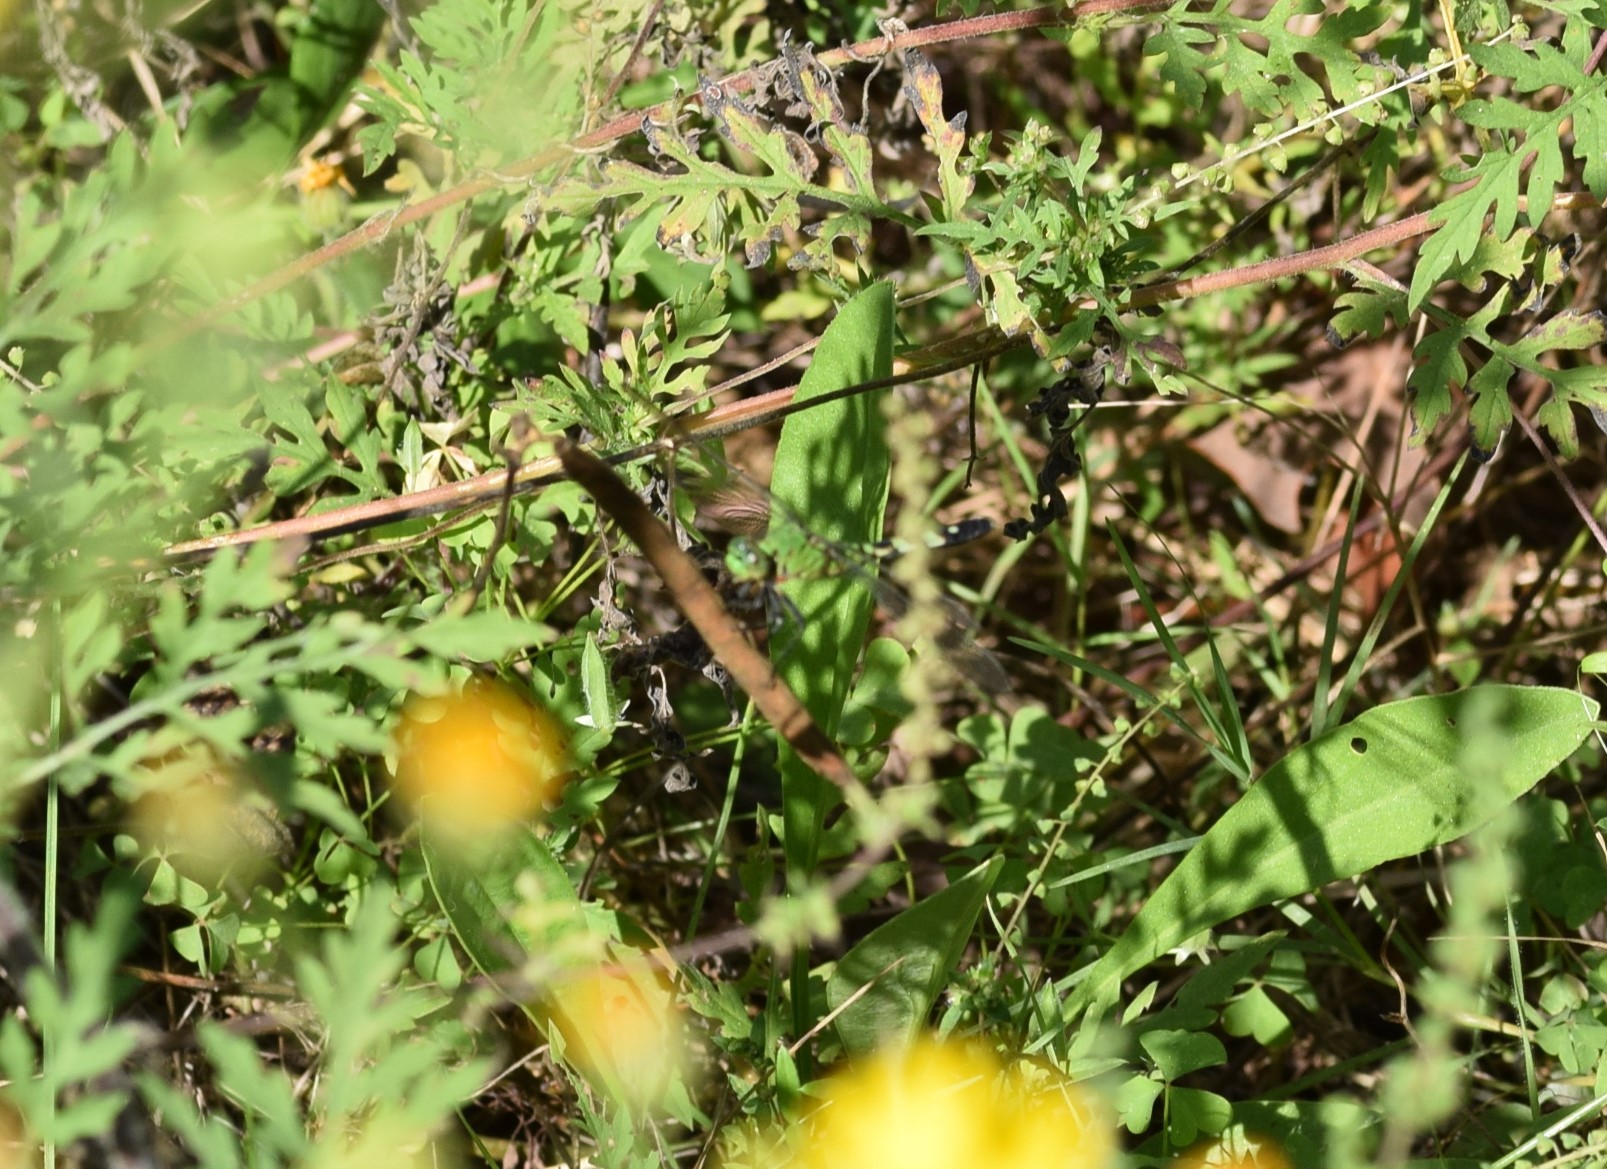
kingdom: Animalia
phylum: Arthropoda
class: Insecta
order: Odonata
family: Libellulidae
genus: Erythemis
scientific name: Erythemis simplicicollis
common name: Eastern pondhawk
